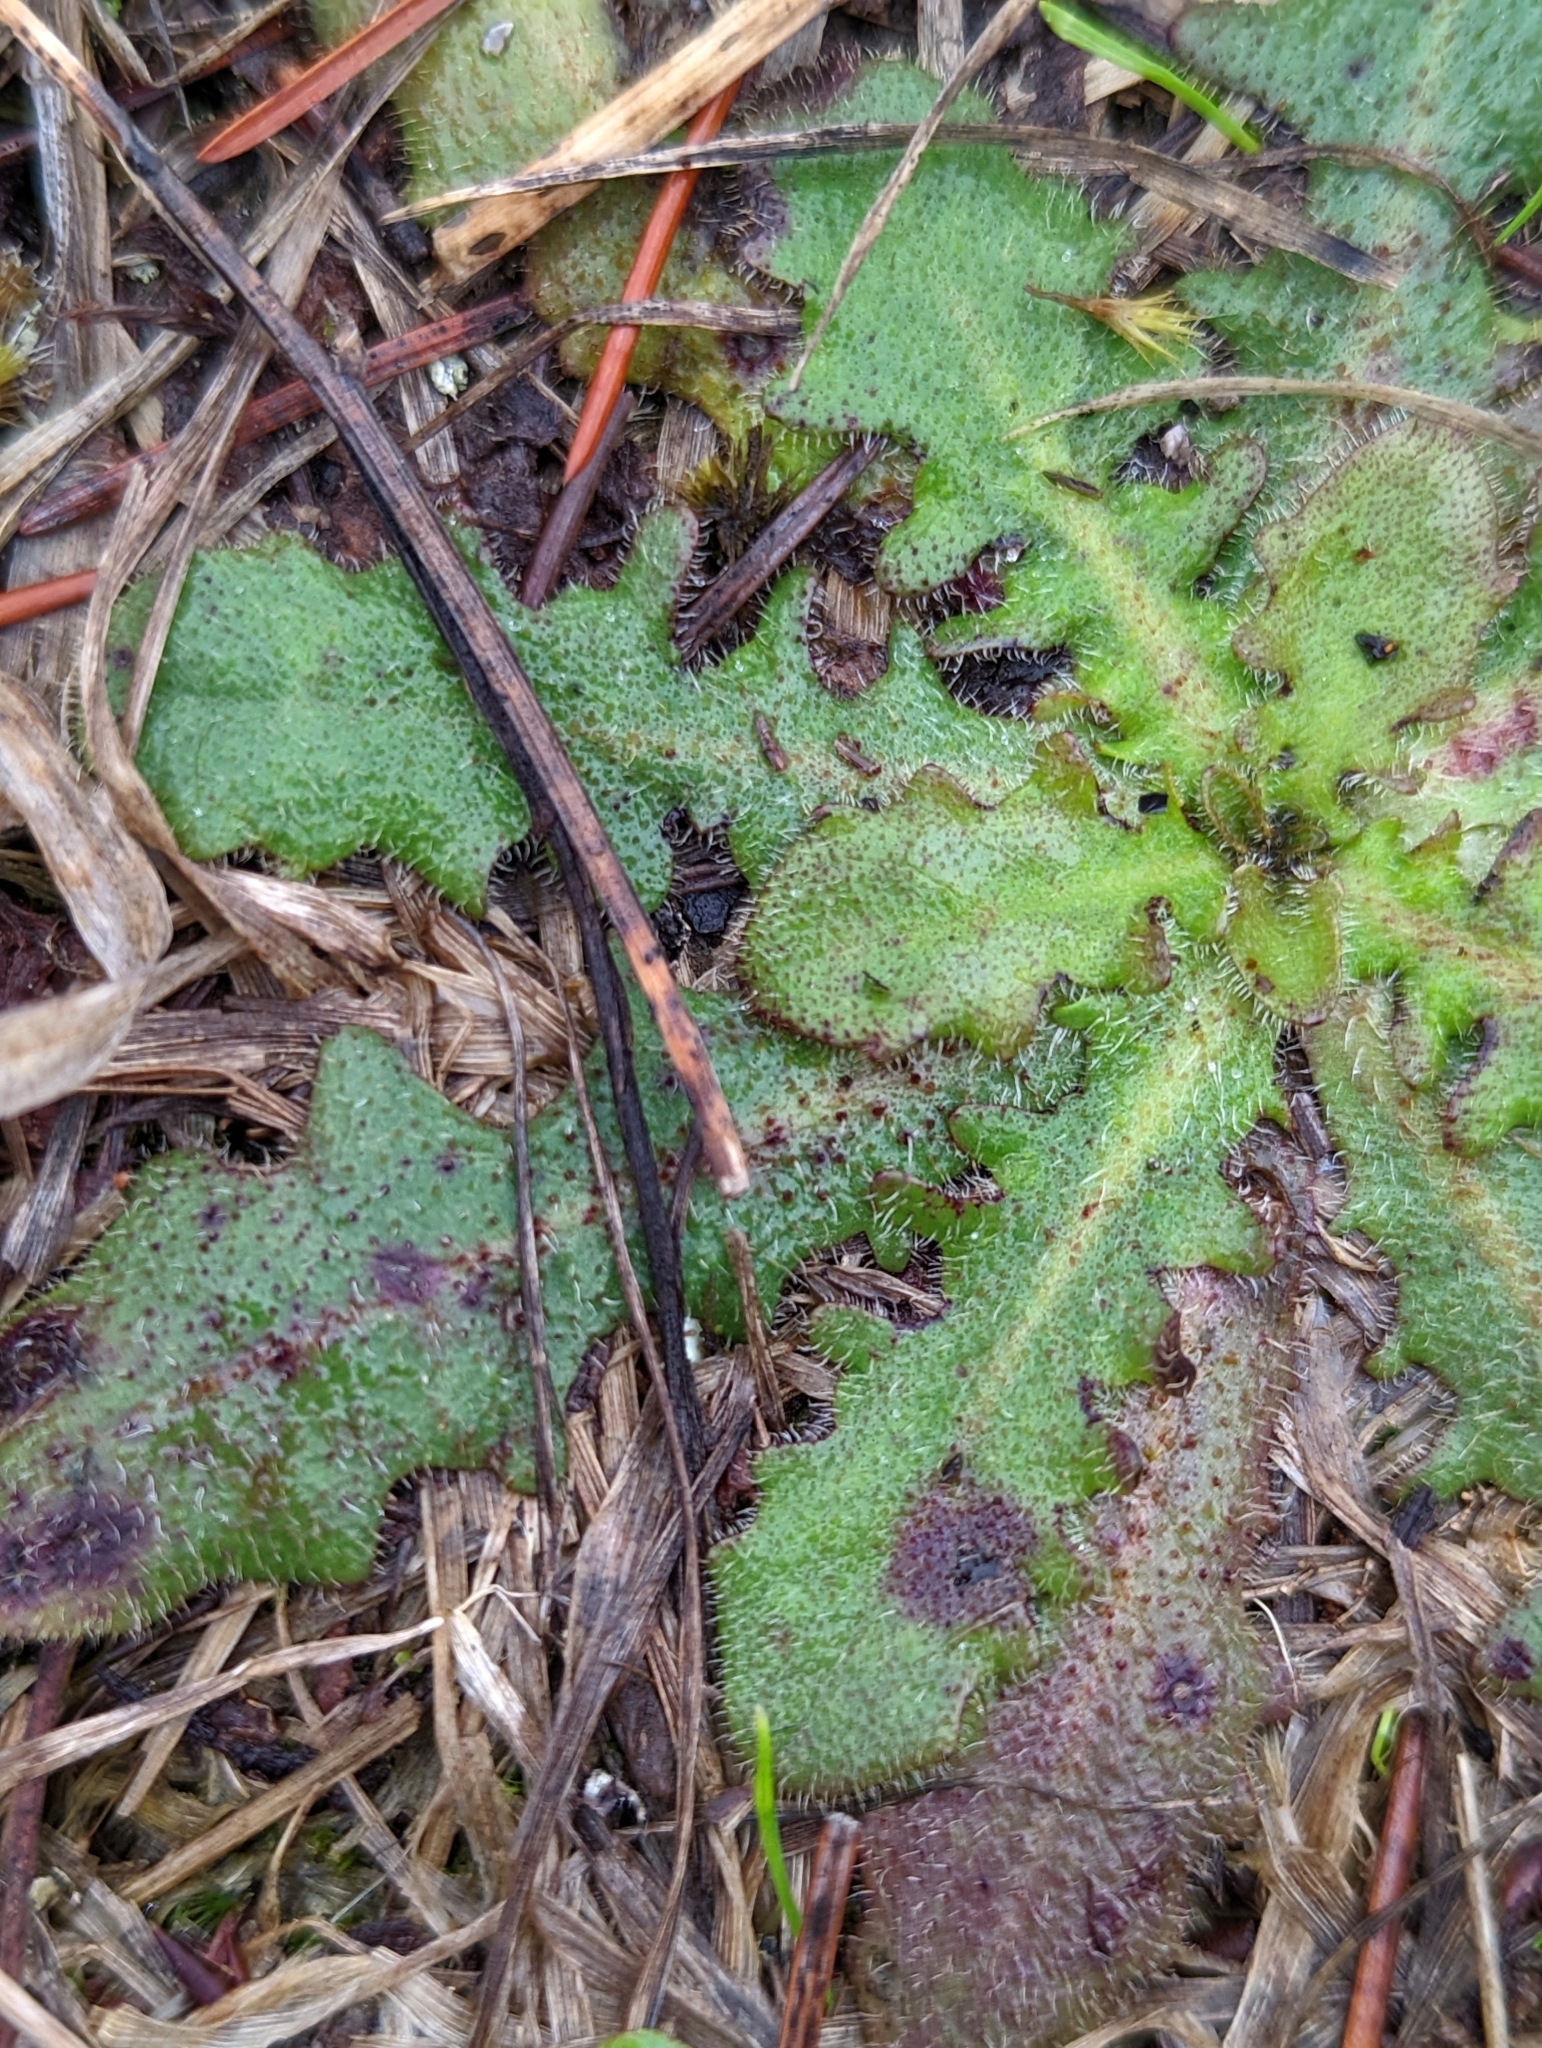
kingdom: Plantae
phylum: Tracheophyta
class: Magnoliopsida
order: Asterales
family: Asteraceae
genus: Hypochaeris
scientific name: Hypochaeris radicata
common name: Flatweed
